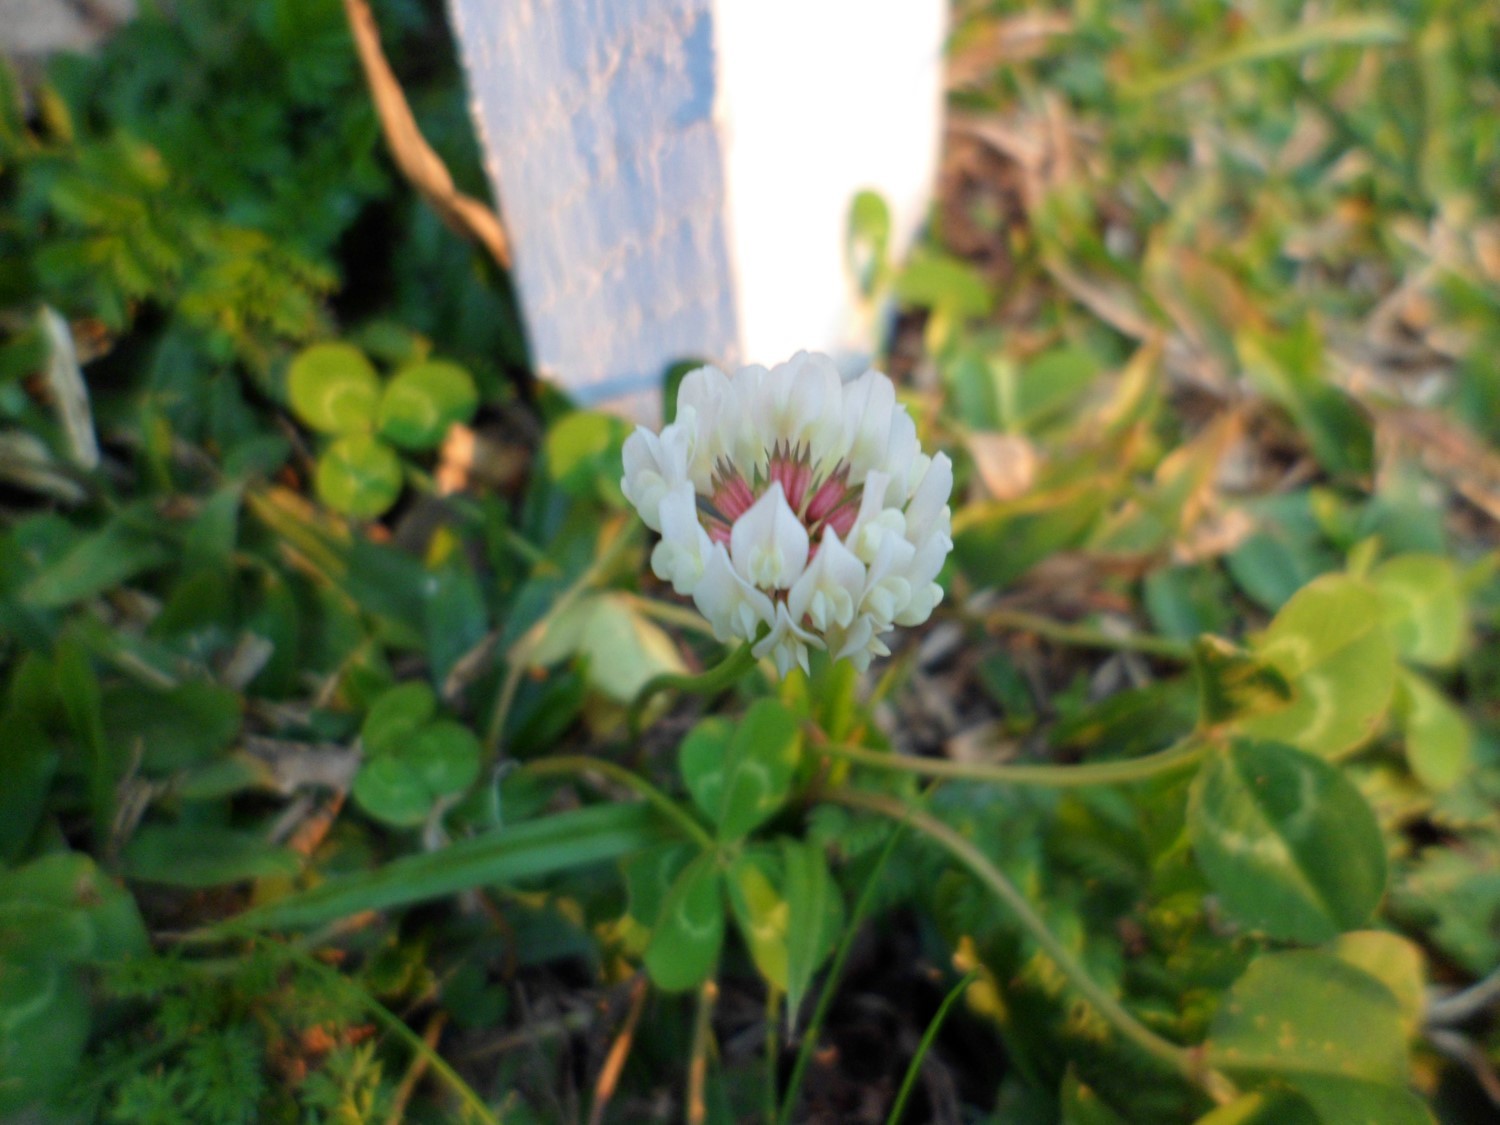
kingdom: Plantae
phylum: Tracheophyta
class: Magnoliopsida
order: Fabales
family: Fabaceae
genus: Trifolium
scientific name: Trifolium repens
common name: White clover
